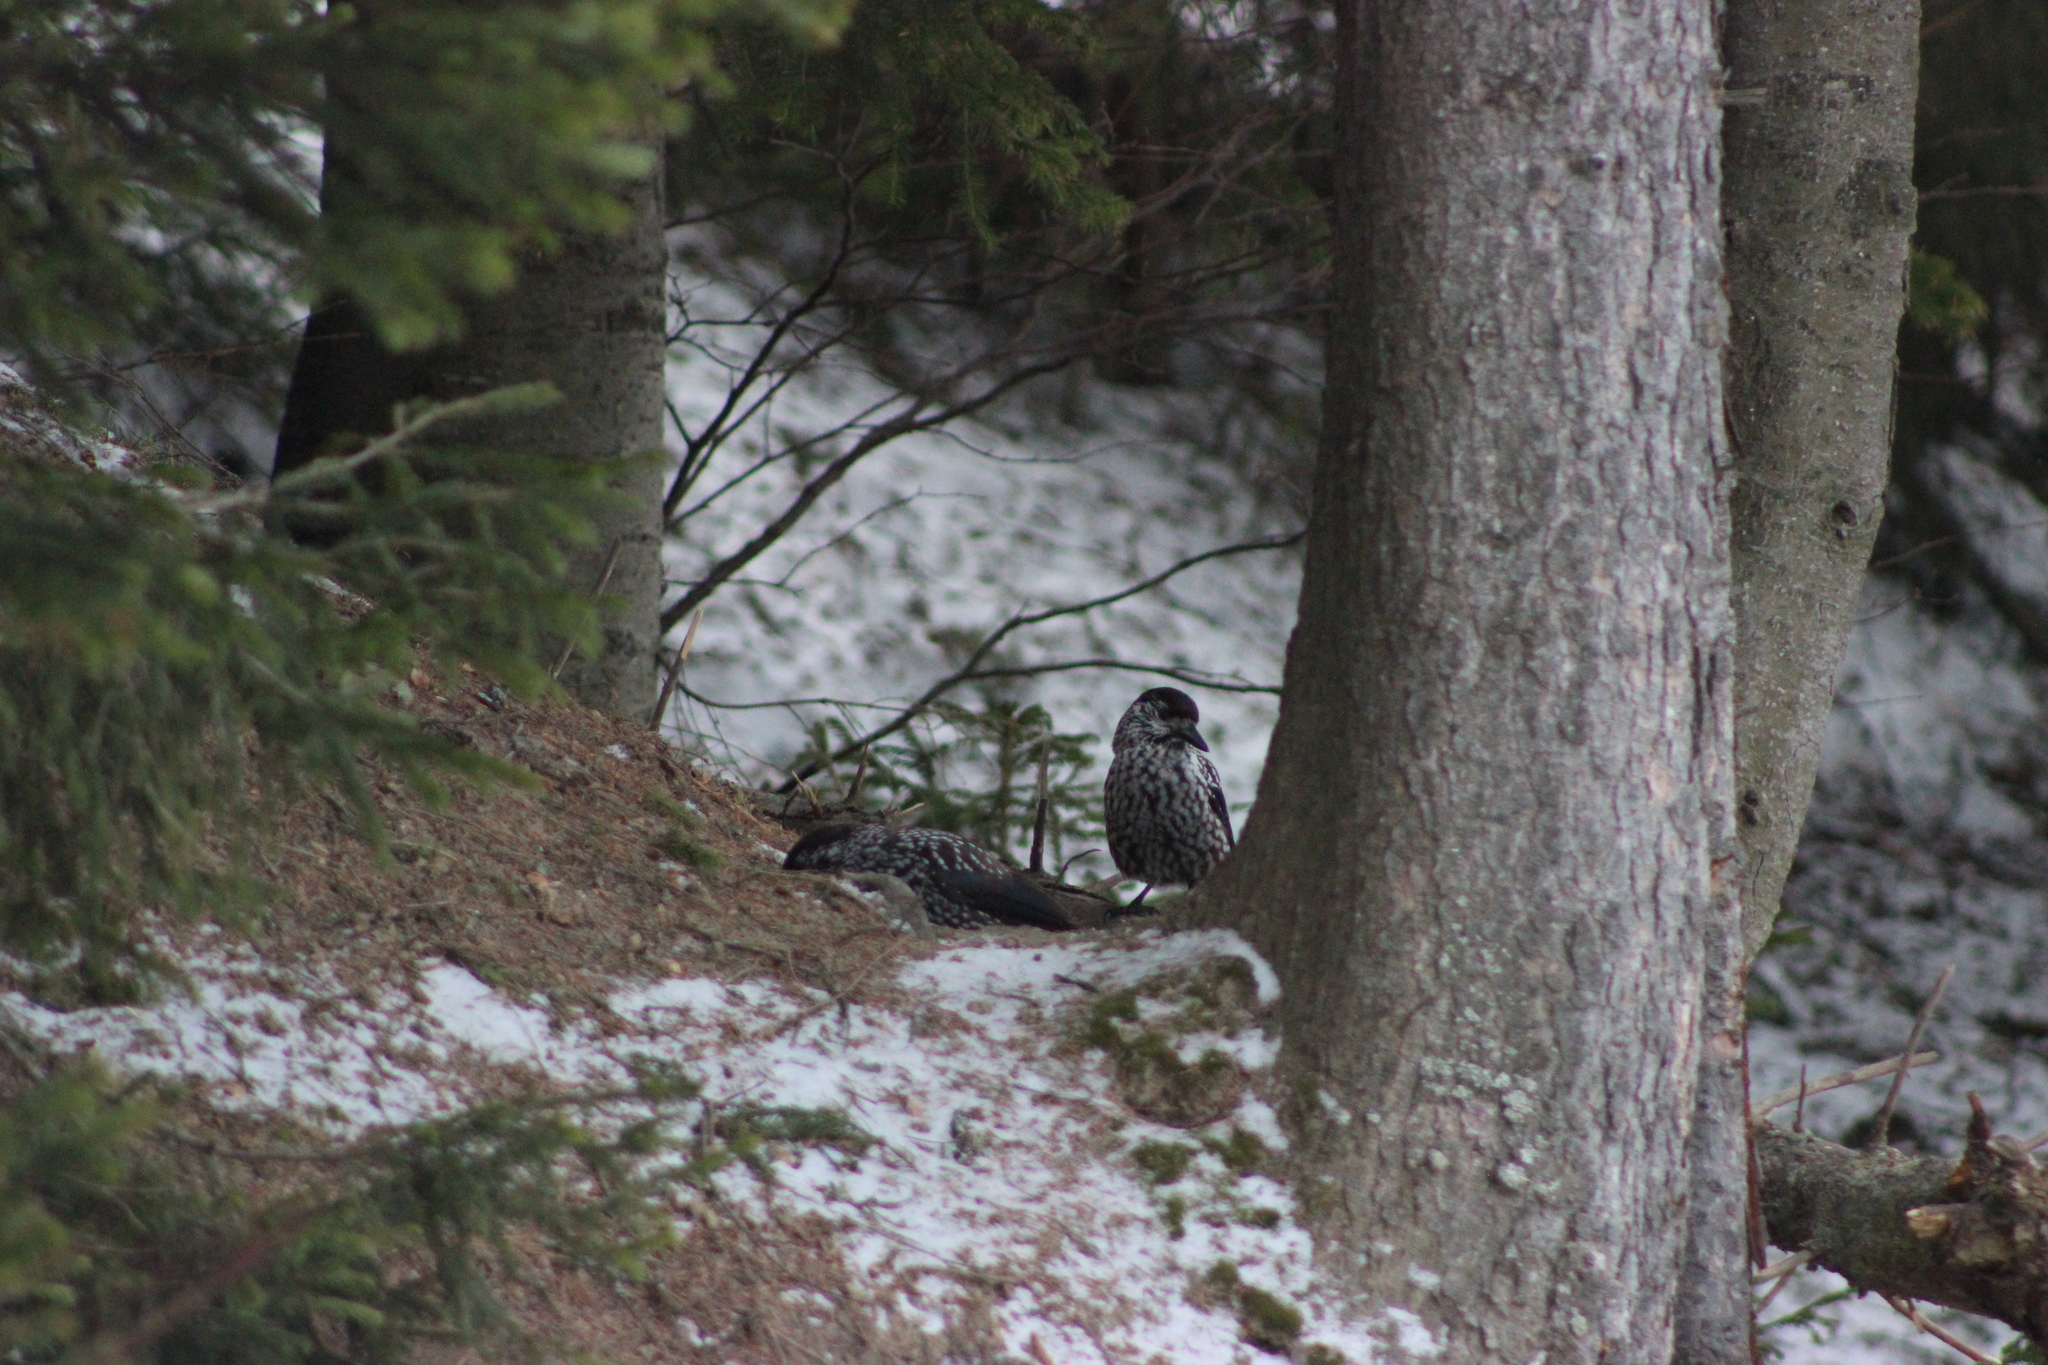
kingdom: Animalia
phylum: Chordata
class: Aves
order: Passeriformes
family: Corvidae
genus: Nucifraga
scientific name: Nucifraga caryocatactes
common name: Spotted nutcracker
